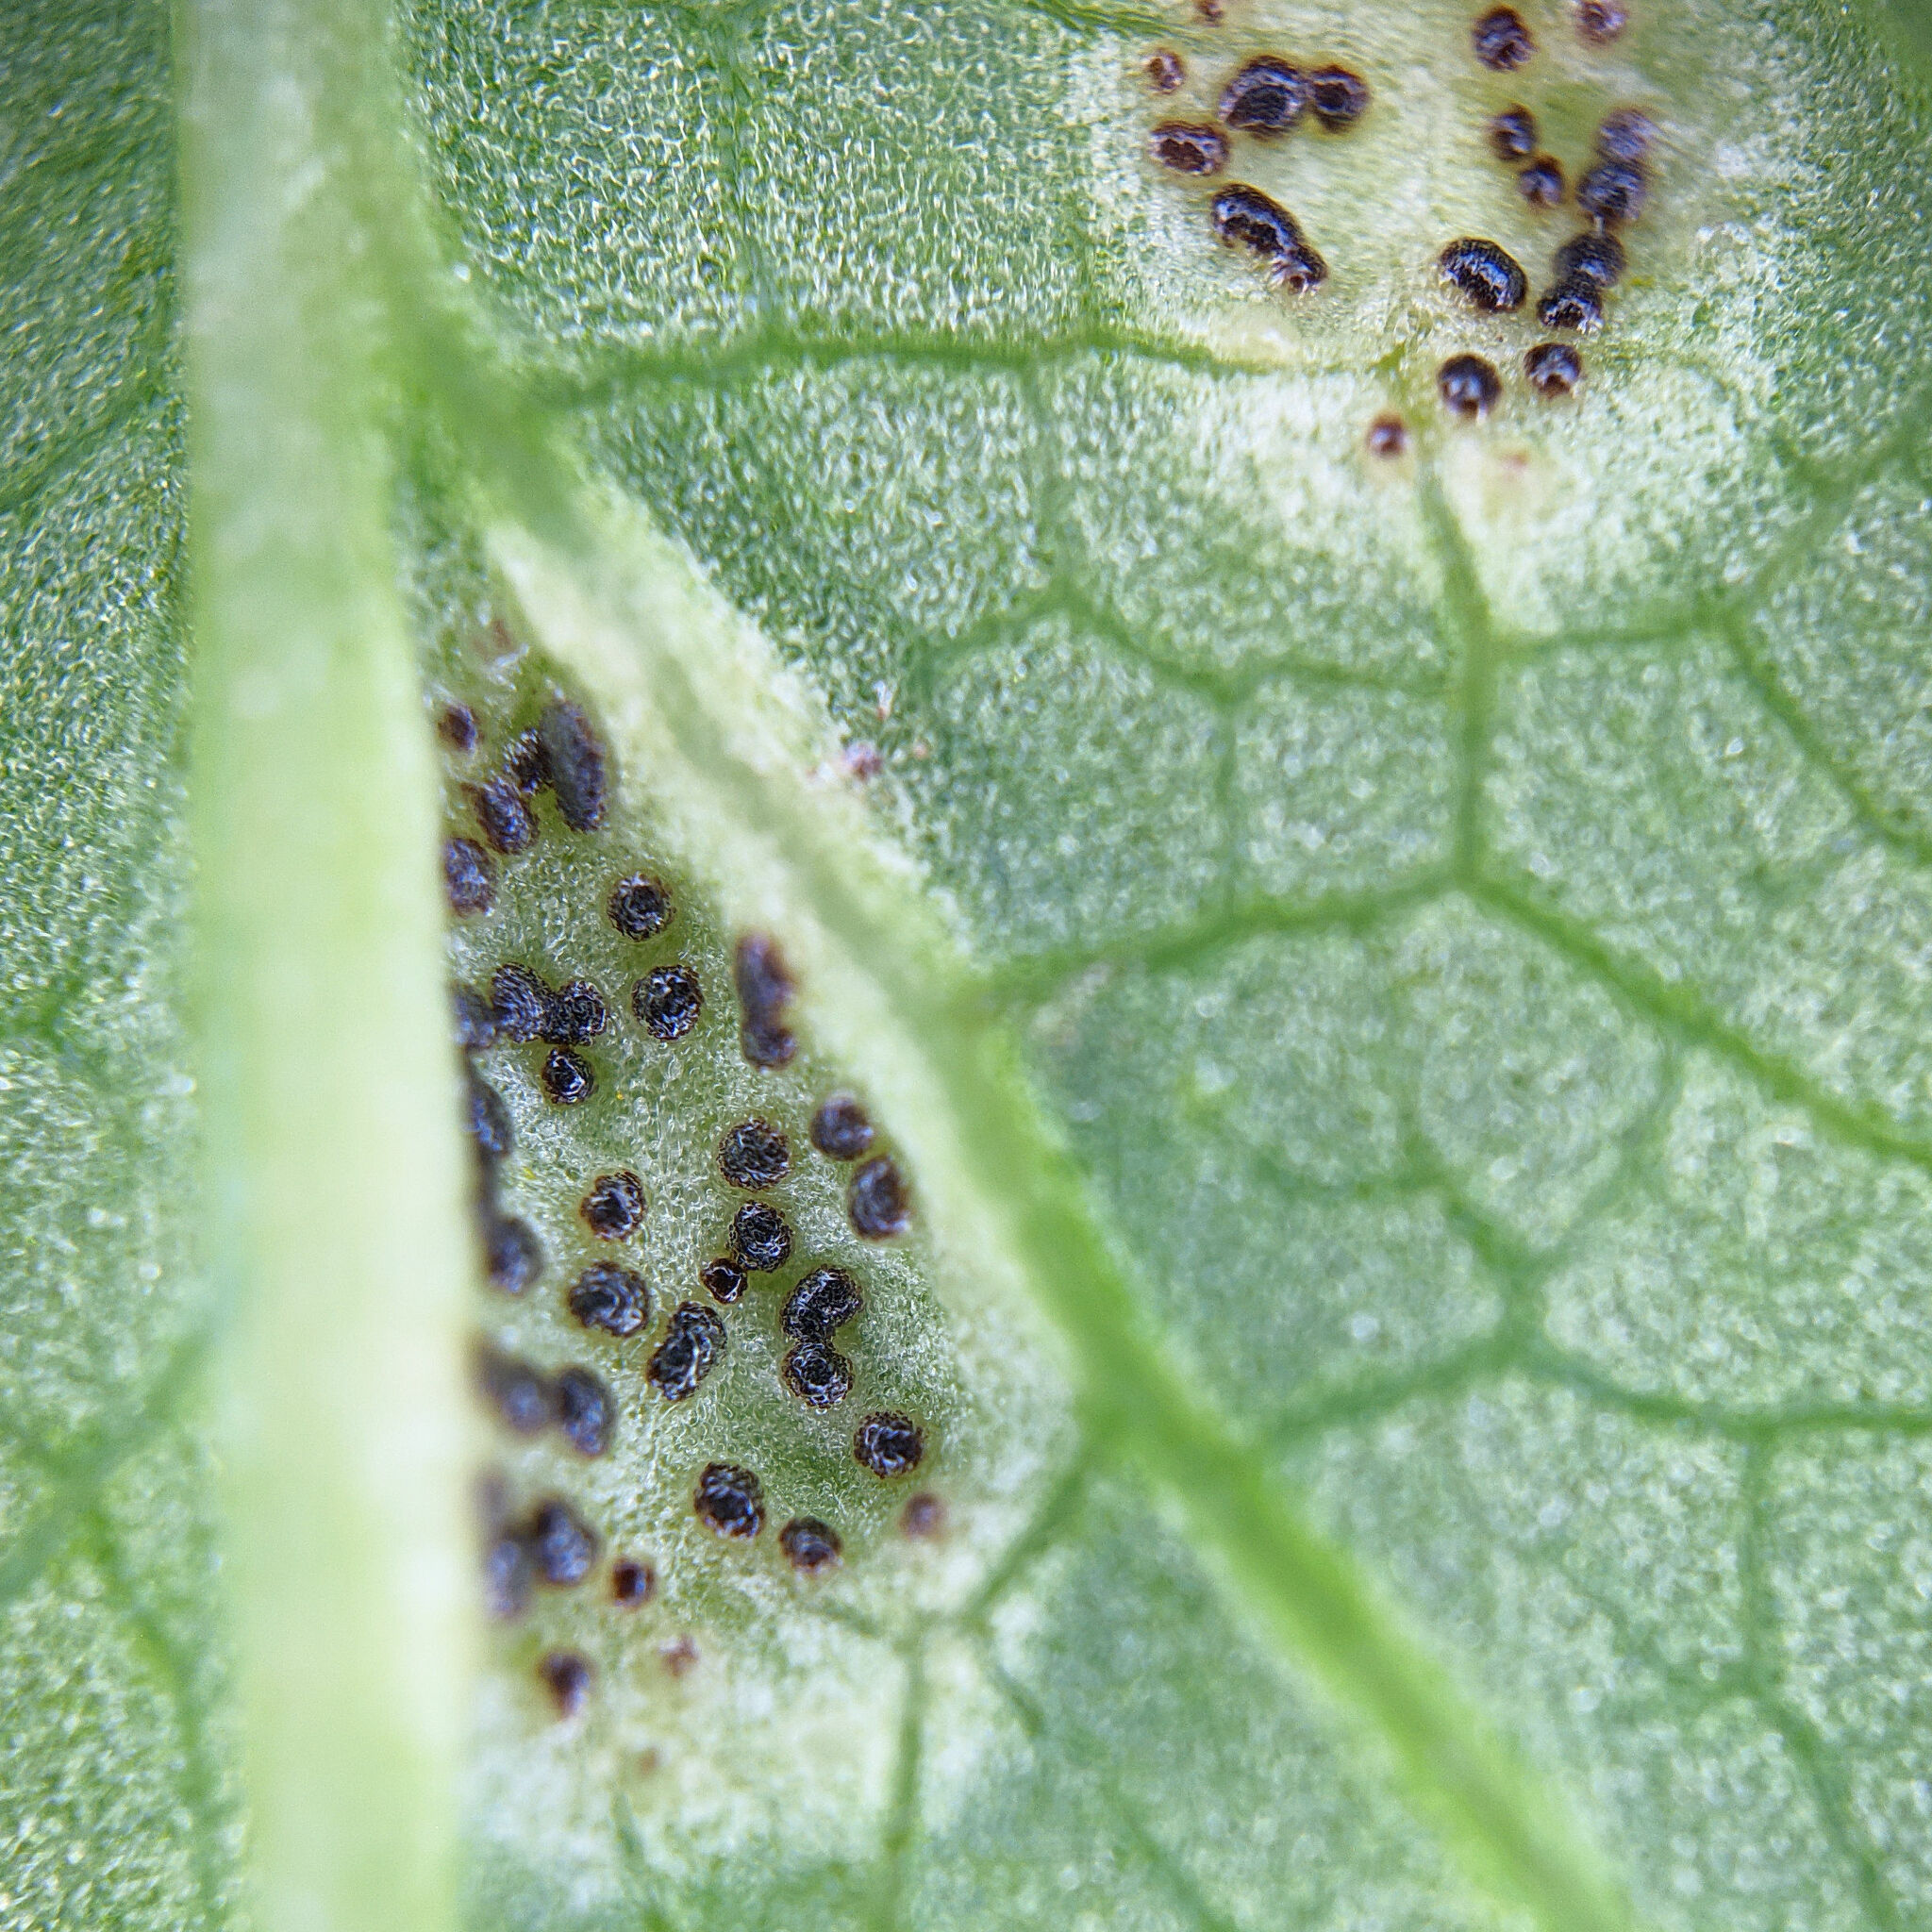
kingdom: Fungi
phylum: Basidiomycota
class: Pucciniomycetes
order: Pucciniales
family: Pucciniaceae
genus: Puccinia
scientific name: Puccinia aegopodii
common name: Ground elder rust
